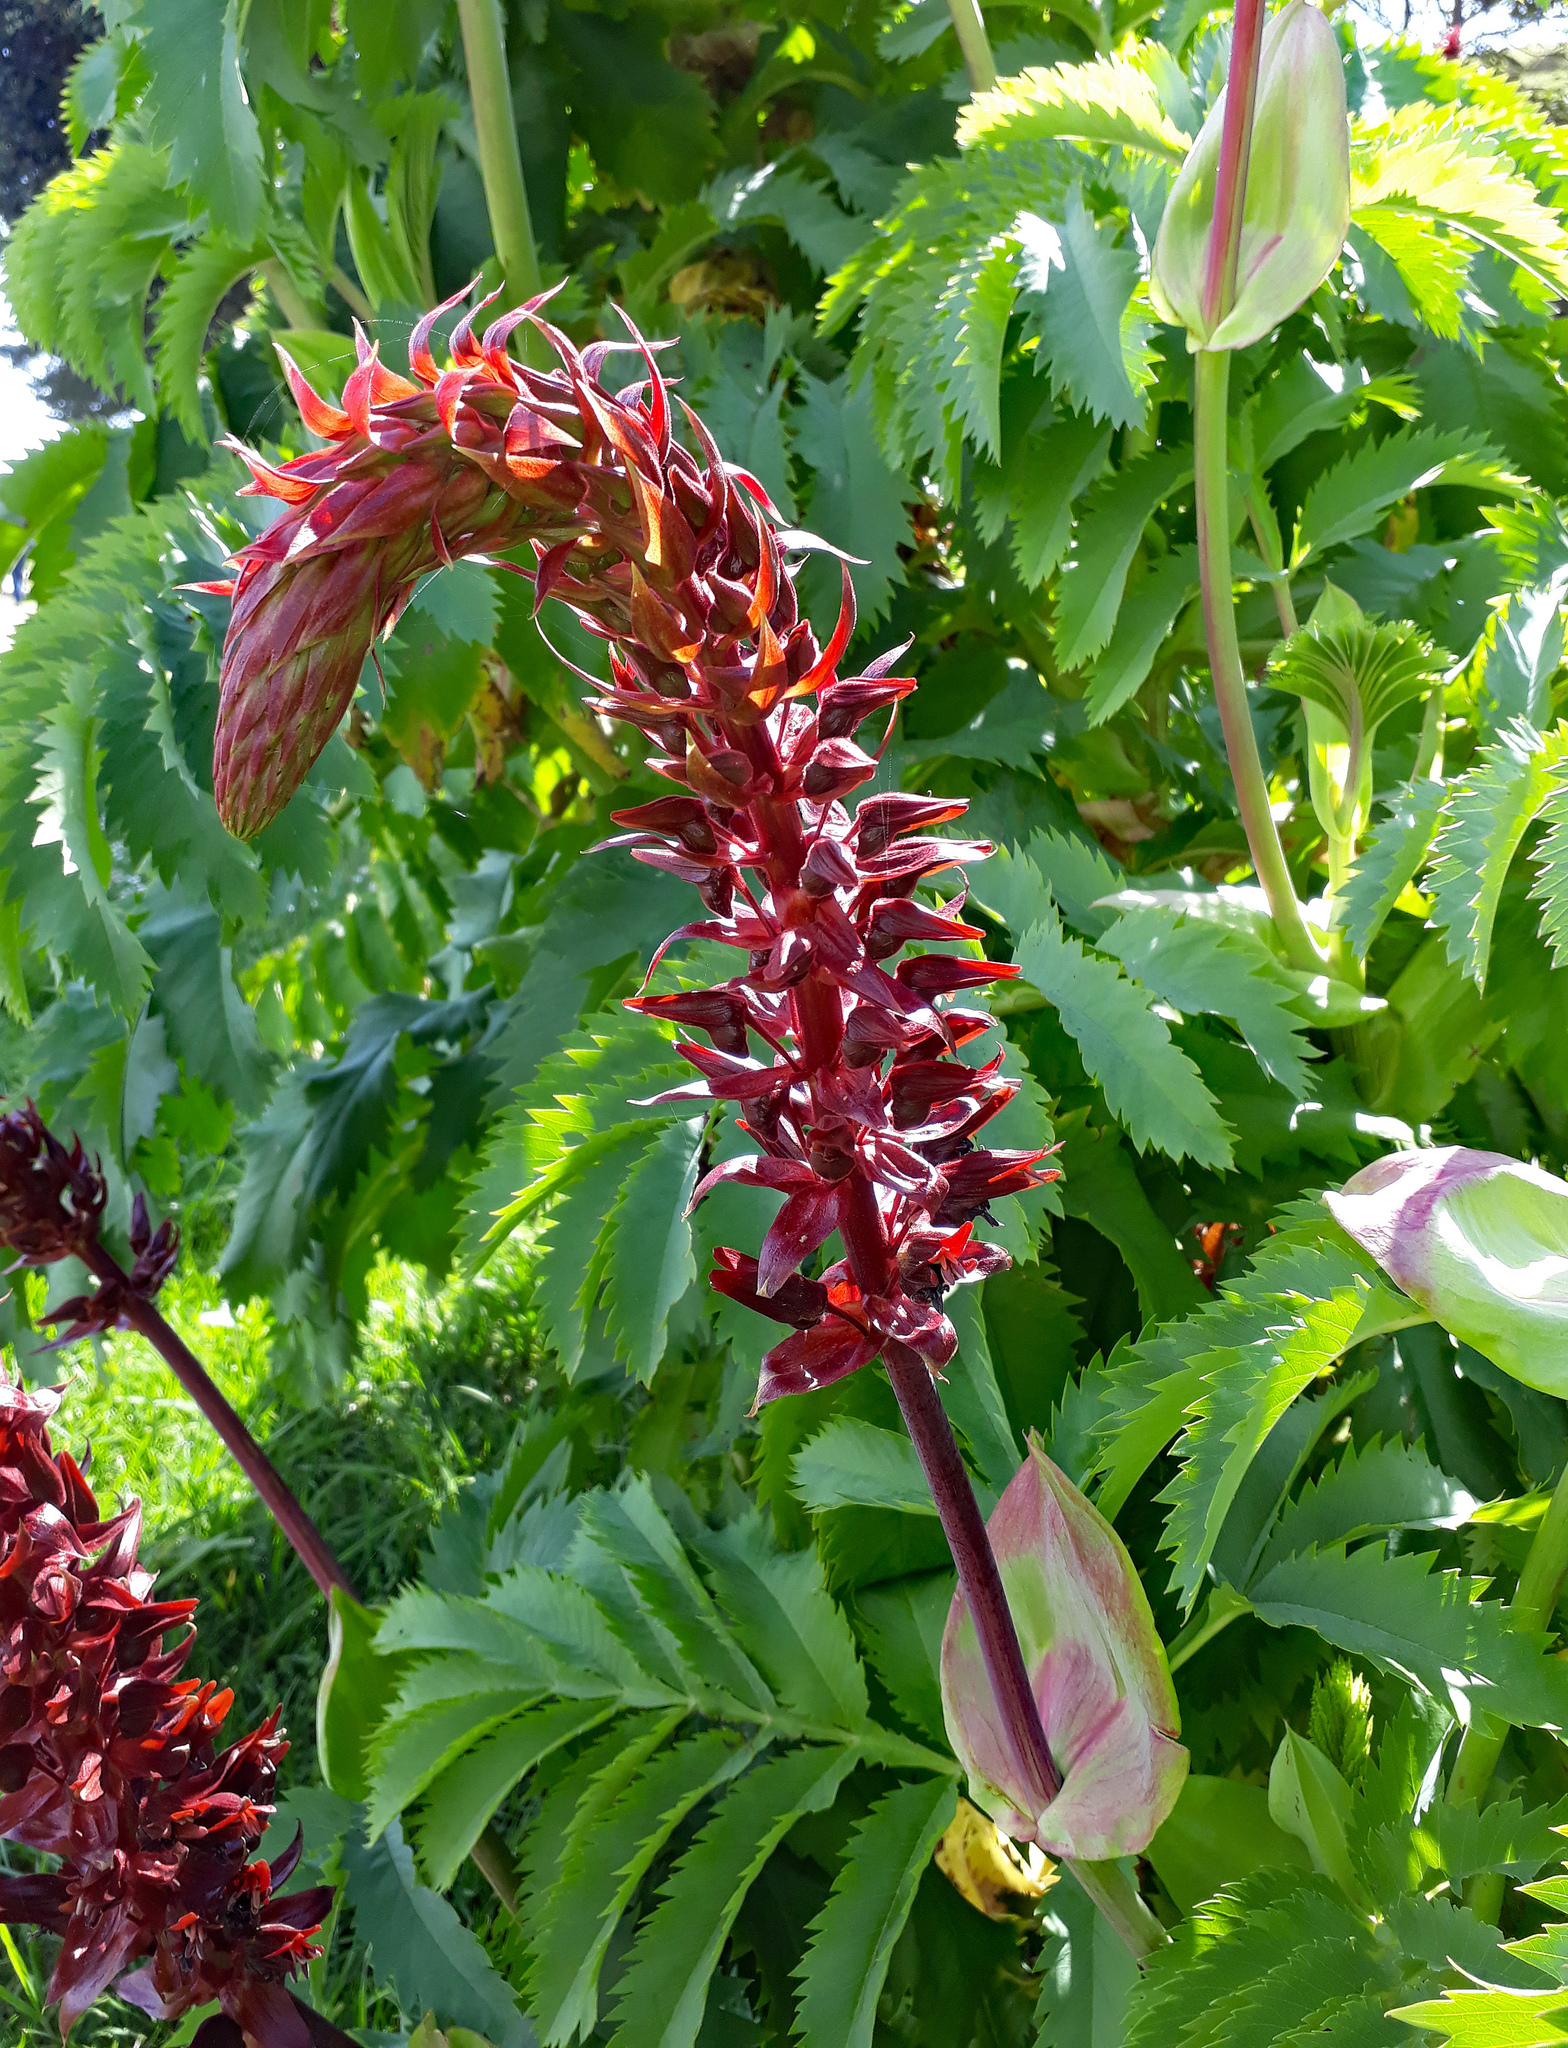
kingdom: Plantae
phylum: Tracheophyta
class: Magnoliopsida
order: Geraniales
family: Melianthaceae
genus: Melianthus
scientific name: Melianthus major
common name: Honey-flower
